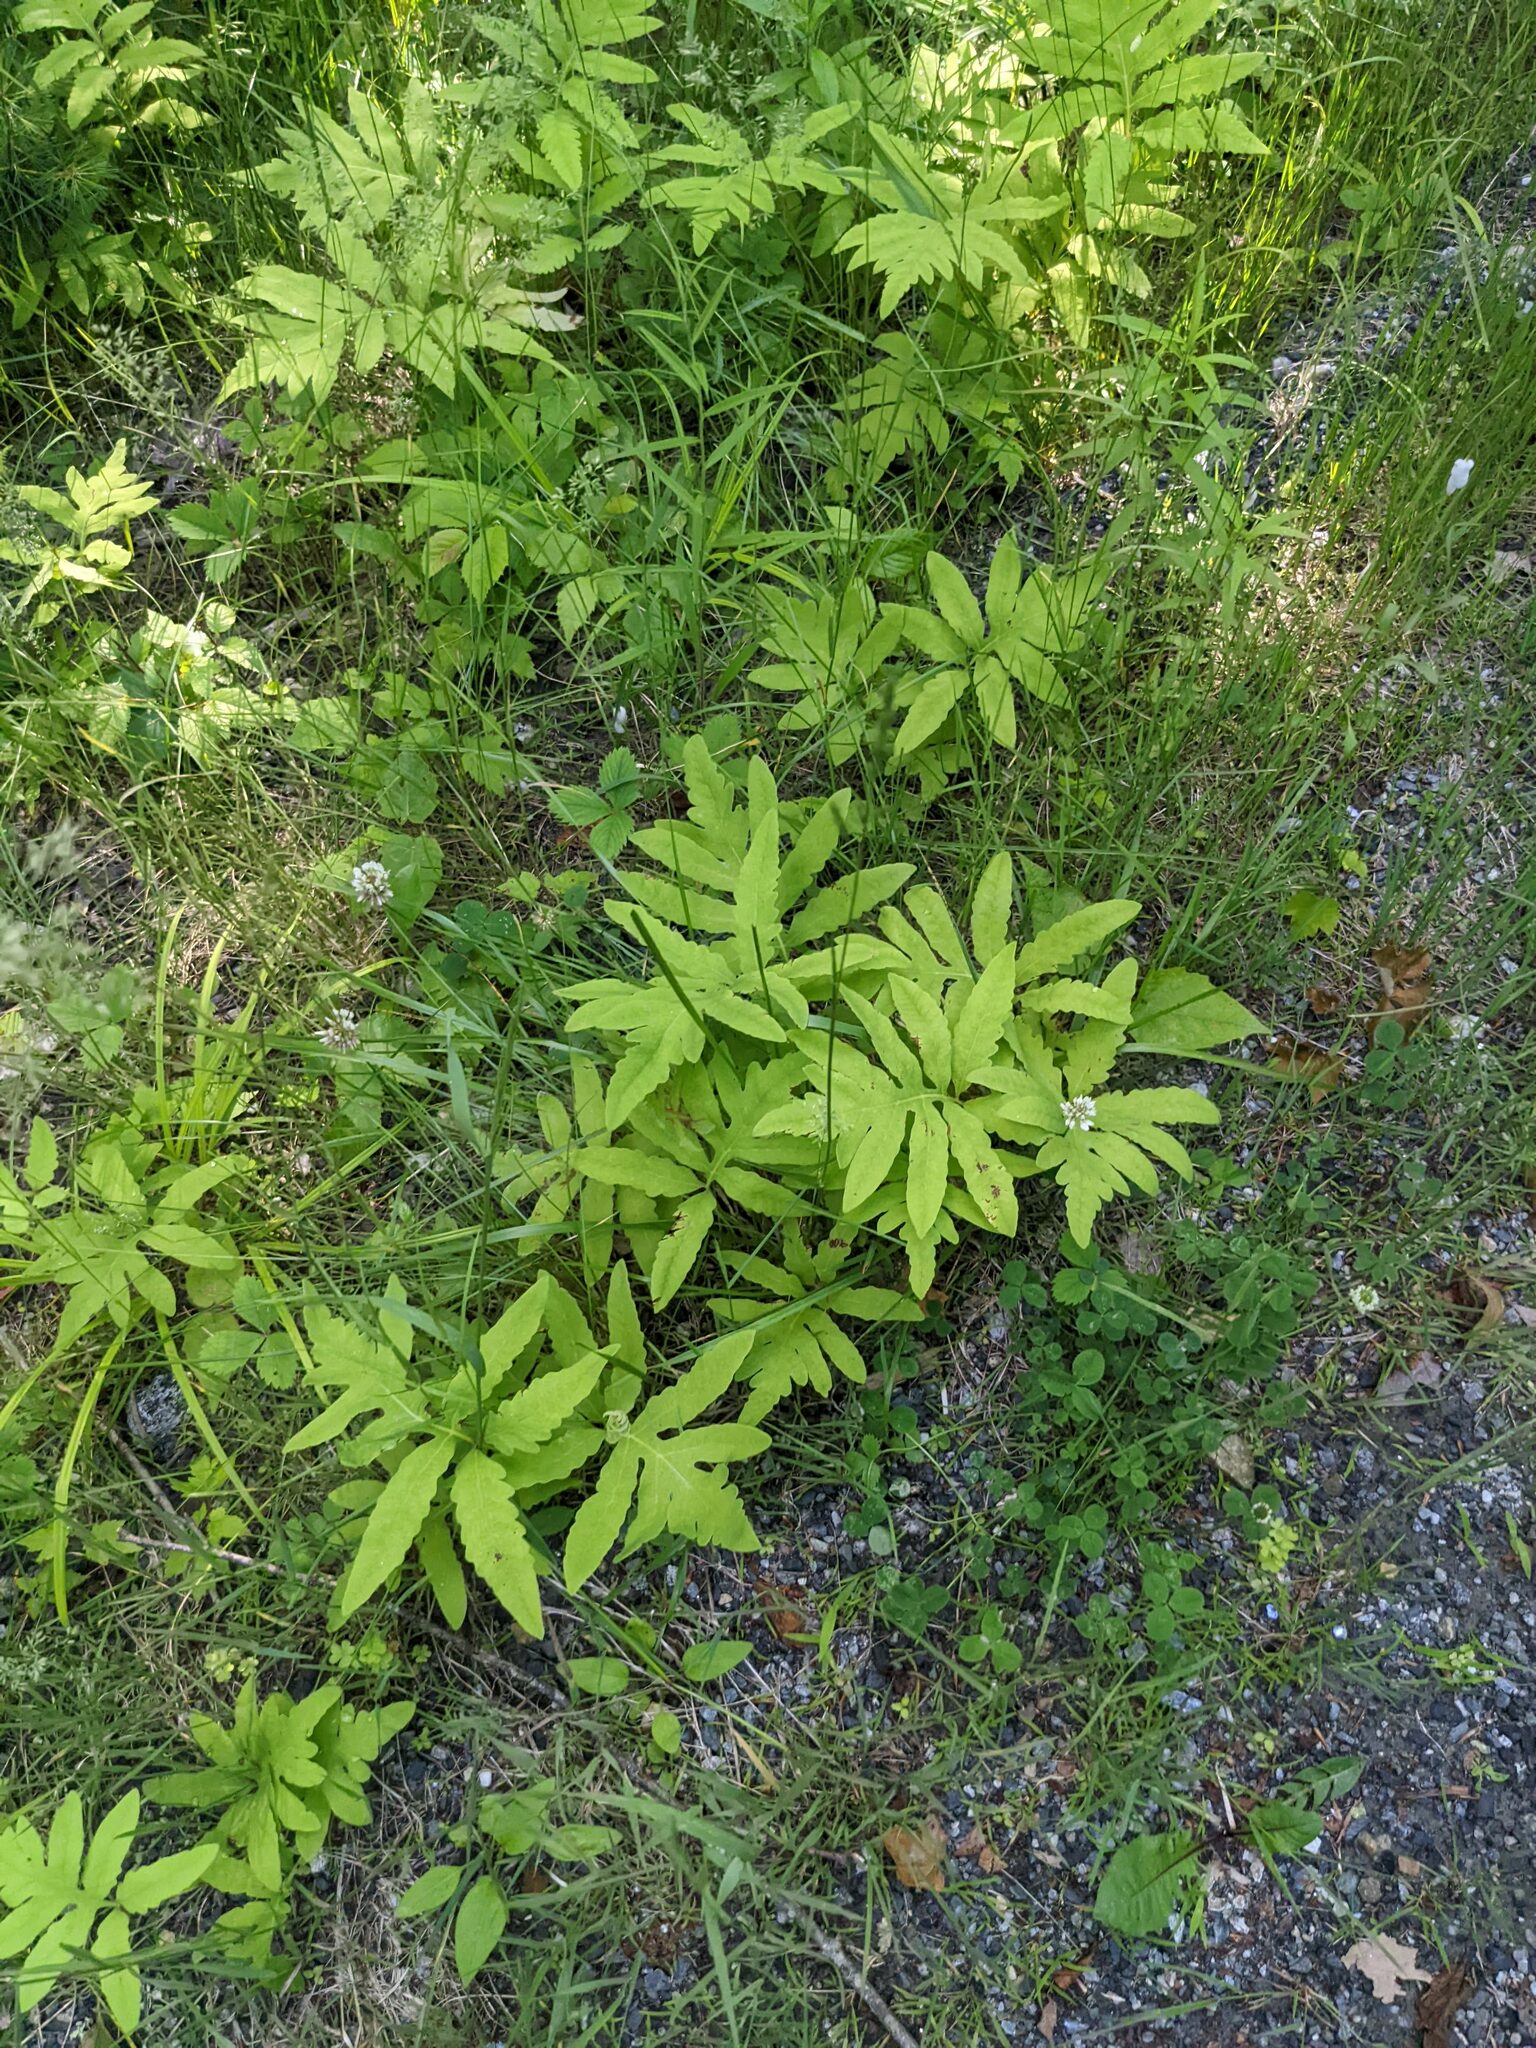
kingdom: Plantae
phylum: Tracheophyta
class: Polypodiopsida
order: Polypodiales
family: Onocleaceae
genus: Onoclea
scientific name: Onoclea sensibilis
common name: Sensitive fern
